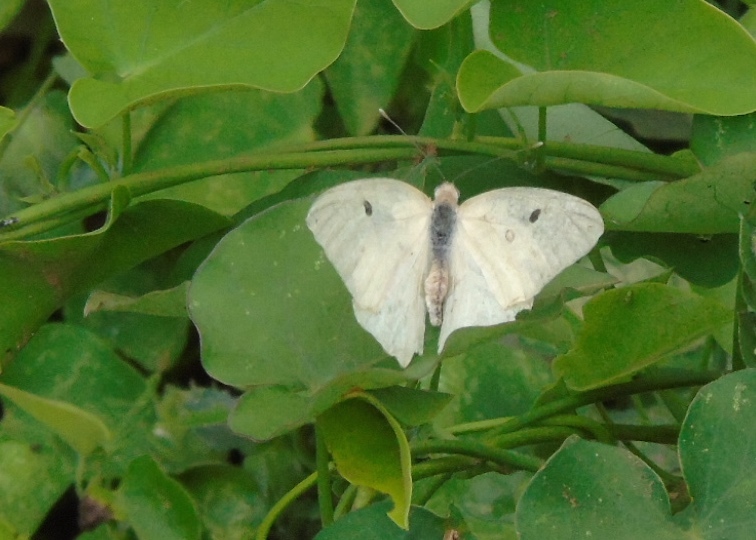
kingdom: Animalia
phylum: Arthropoda
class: Insecta
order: Lepidoptera
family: Pieridae
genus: Ganyra
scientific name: Ganyra josephina
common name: Giant white
